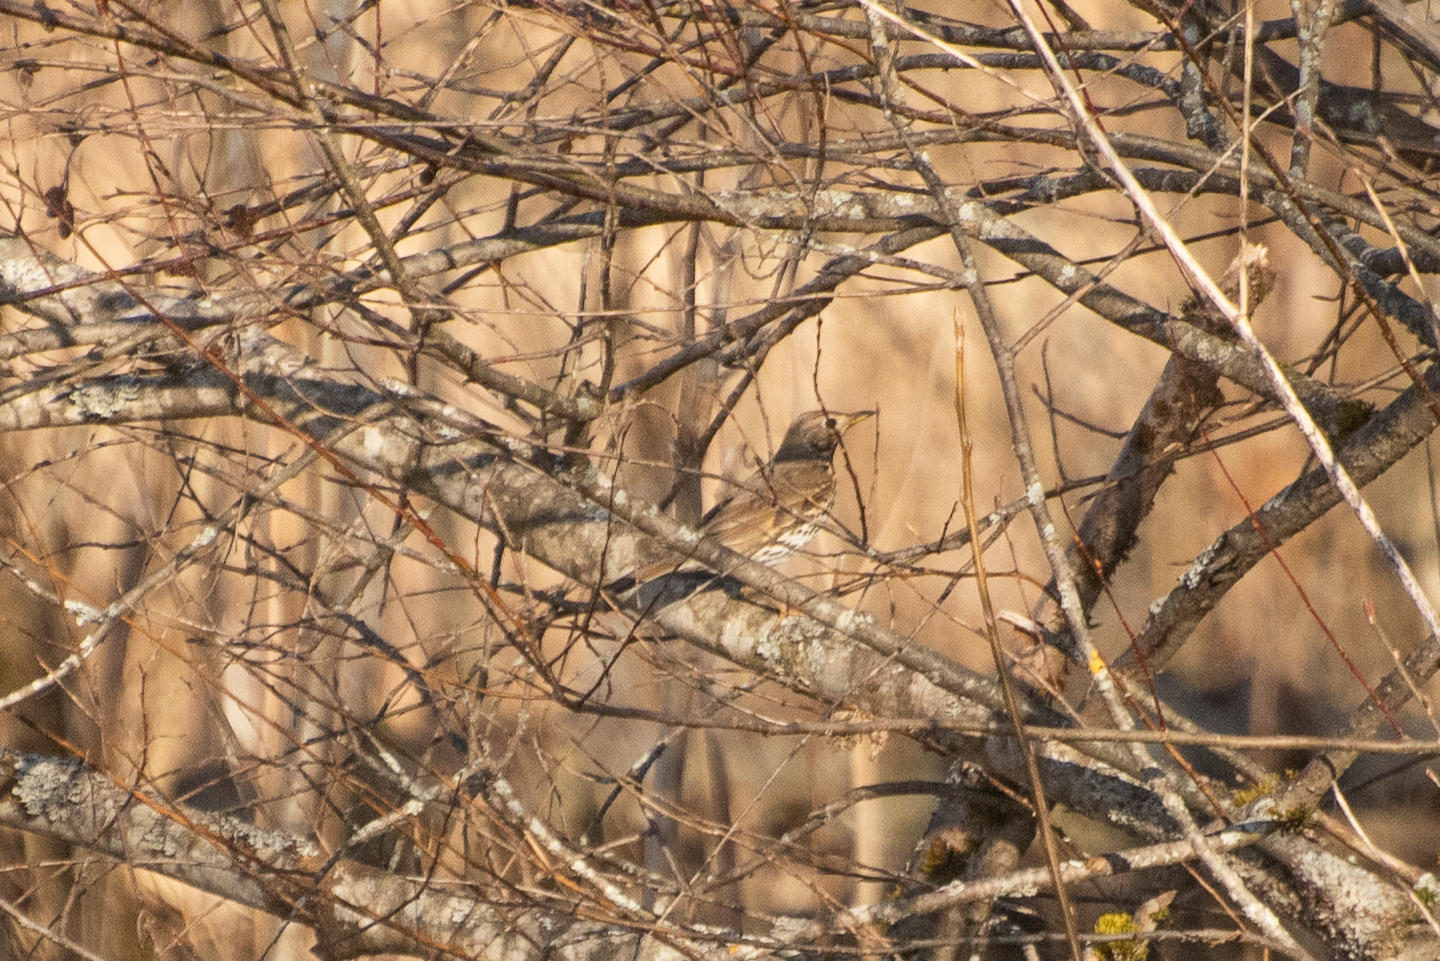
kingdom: Animalia
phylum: Chordata
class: Aves
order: Passeriformes
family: Turdidae
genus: Turdus
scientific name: Turdus philomelos
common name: Song thrush
